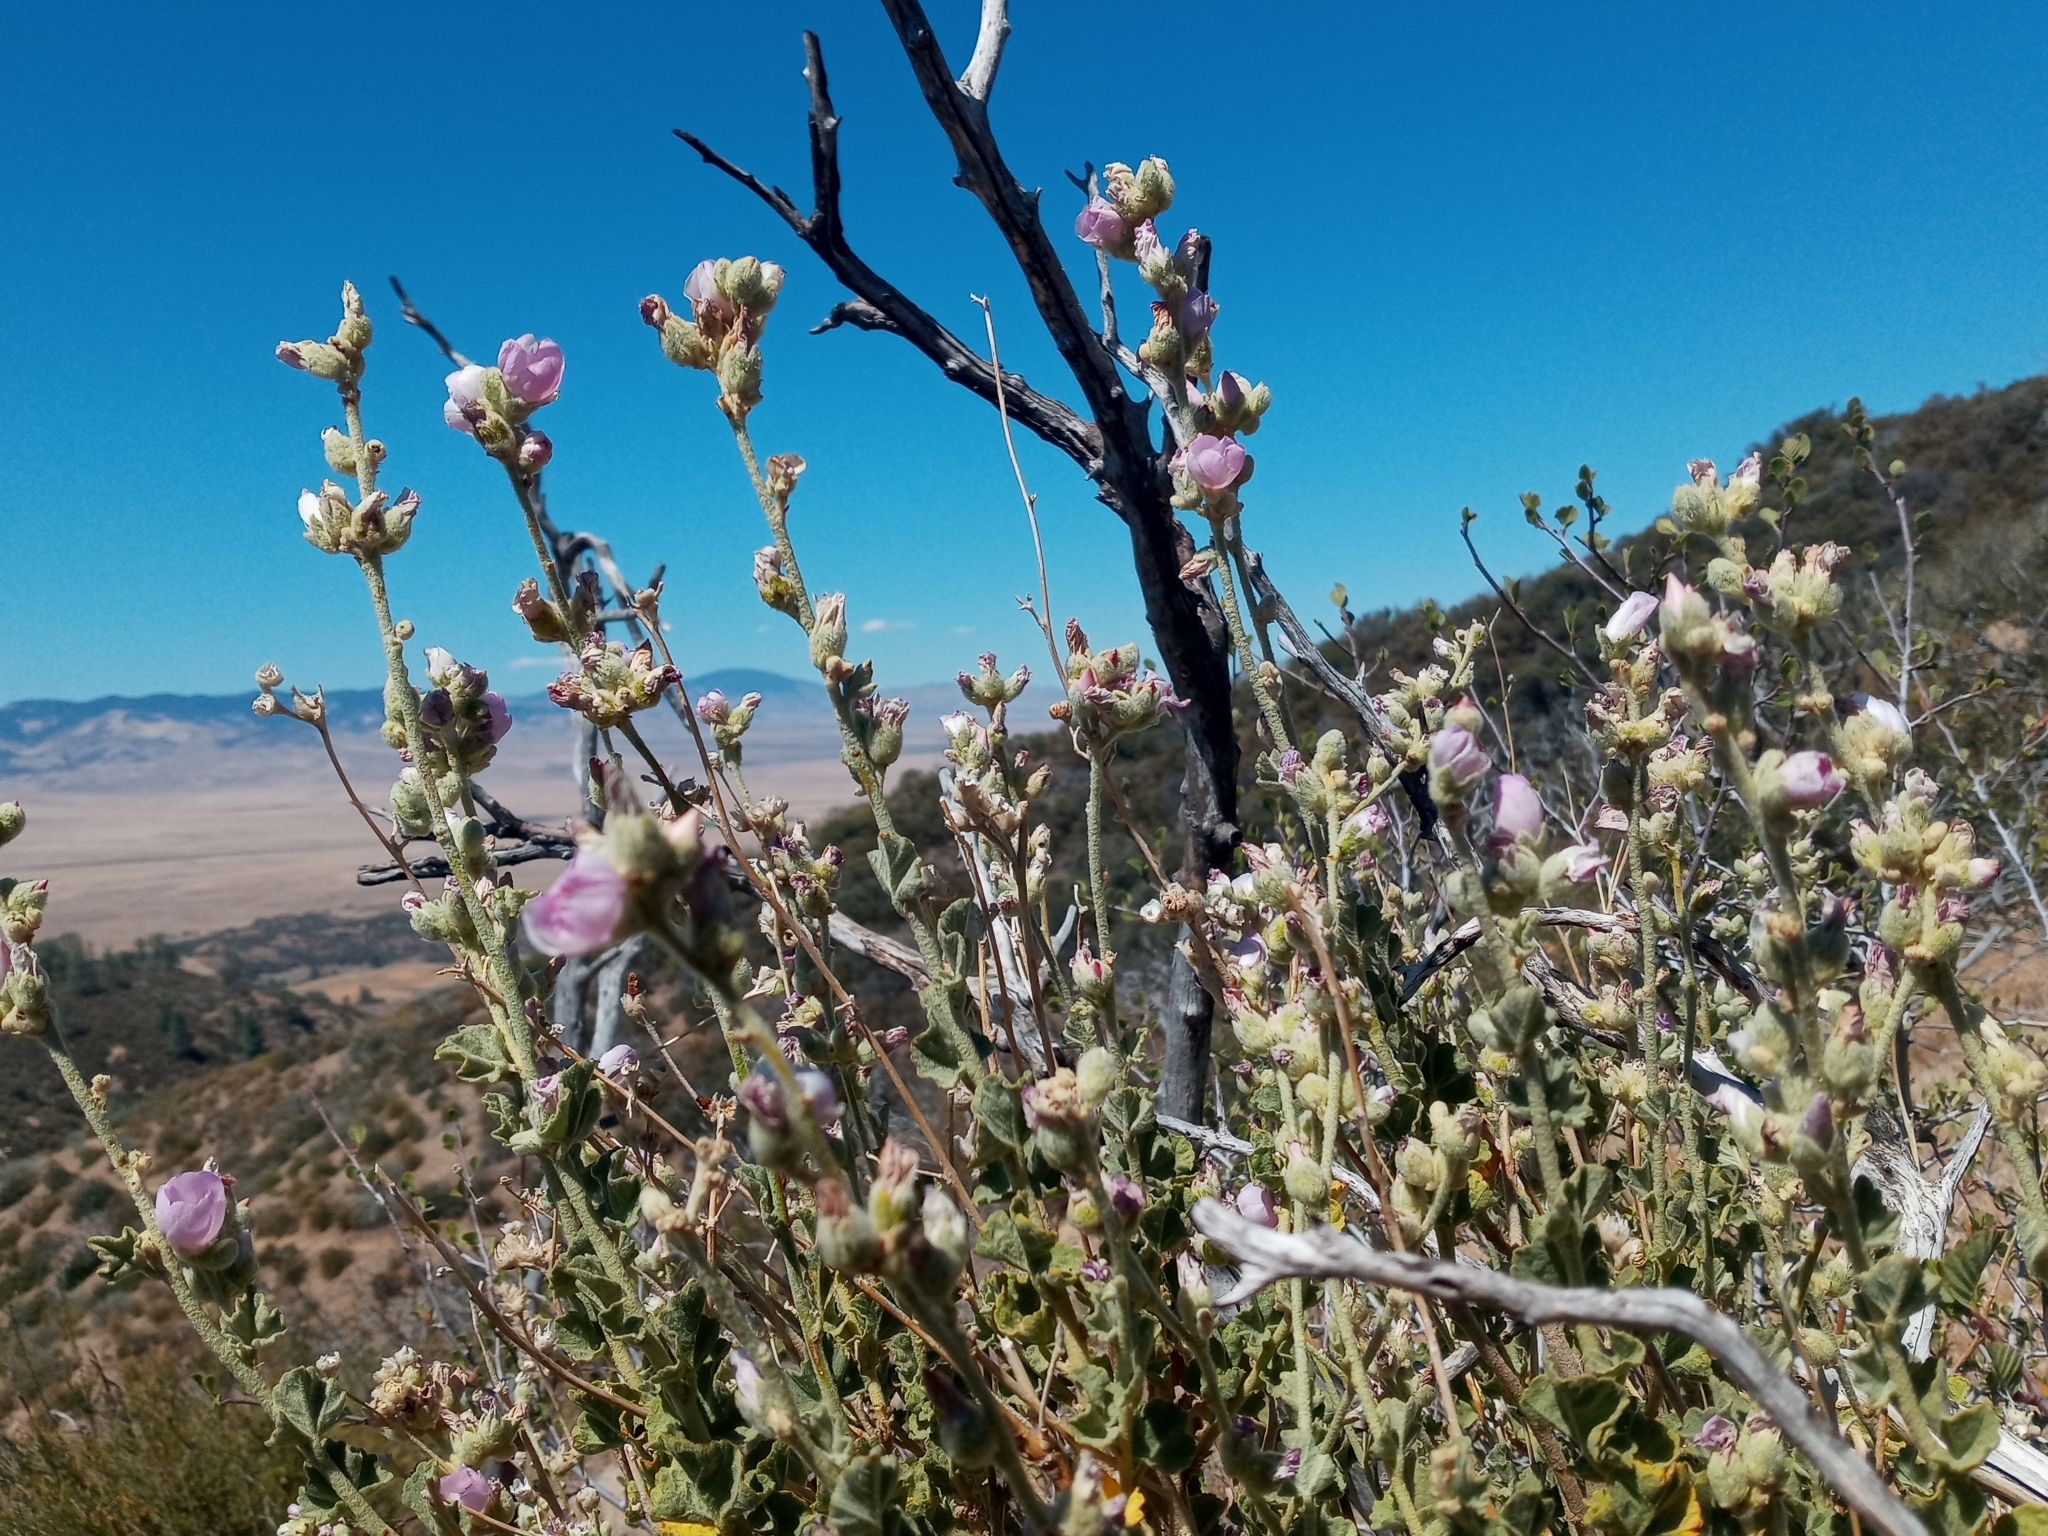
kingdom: Plantae
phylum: Tracheophyta
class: Magnoliopsida
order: Malvales
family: Malvaceae
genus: Malacothamnus
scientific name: Malacothamnus fremontii
